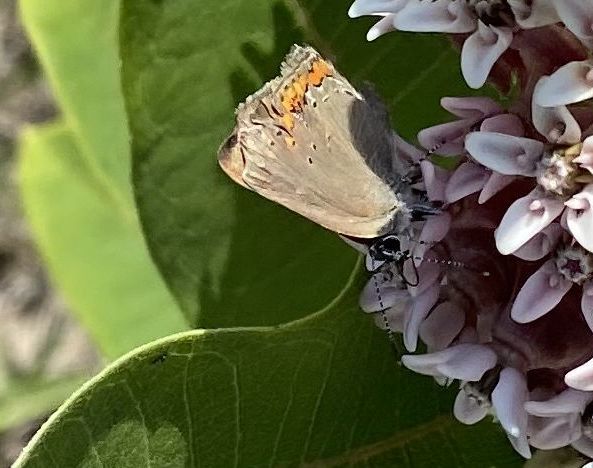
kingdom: Animalia
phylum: Arthropoda
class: Insecta
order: Lepidoptera
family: Lycaenidae
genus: Harkenclenus
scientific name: Harkenclenus titus
